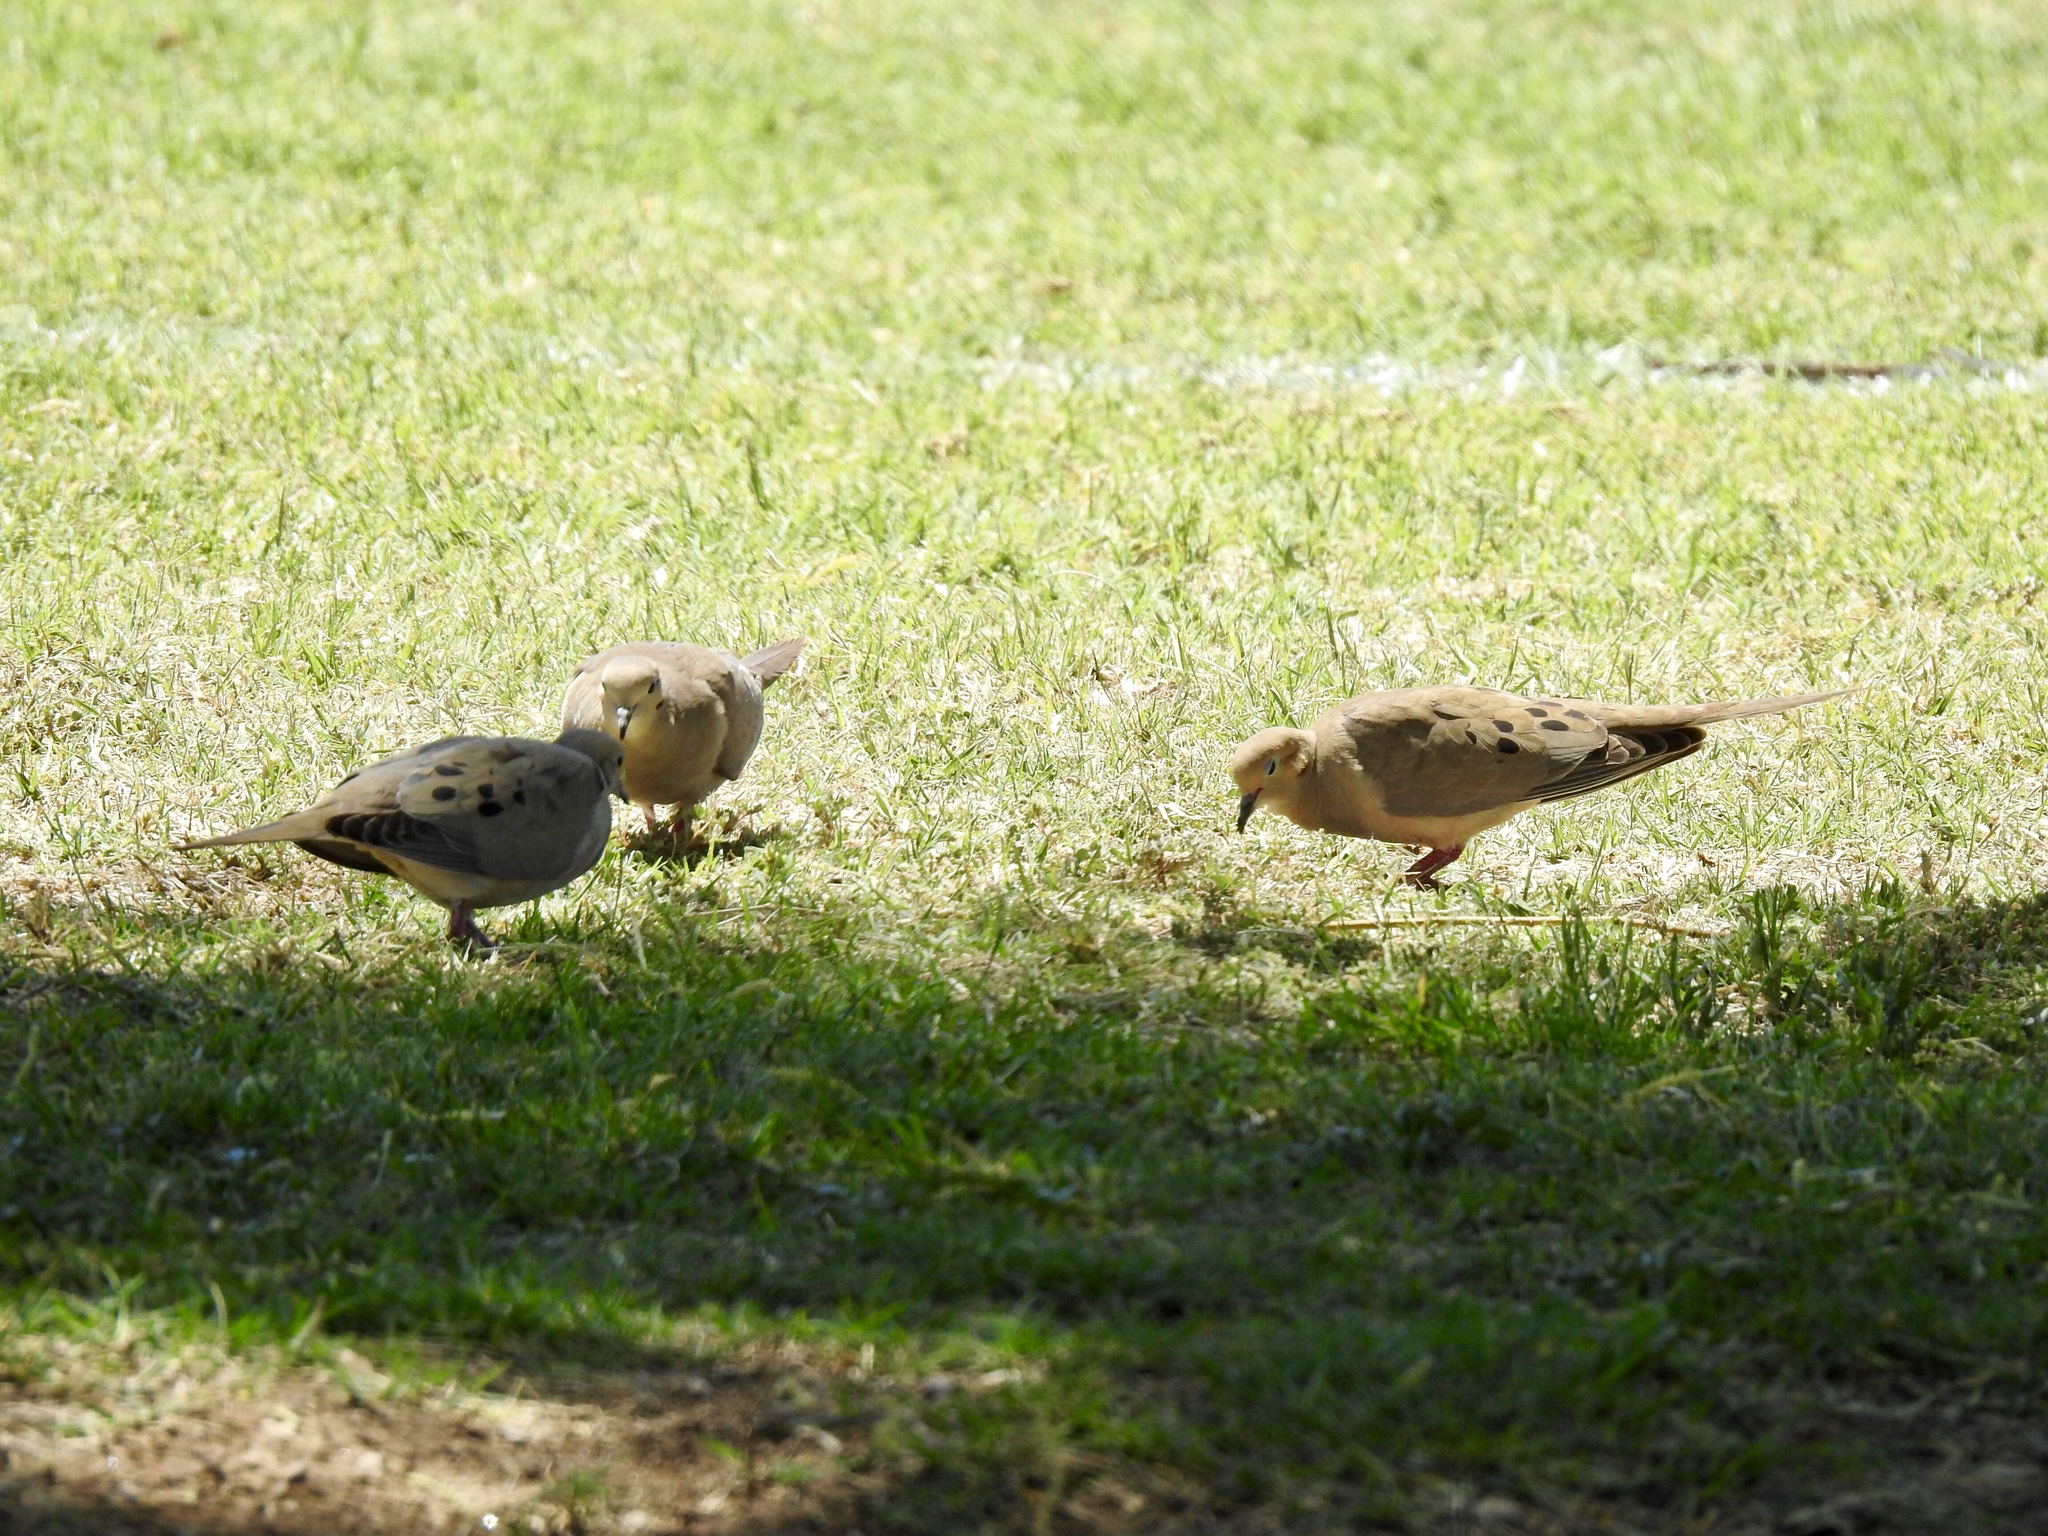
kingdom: Animalia
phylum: Chordata
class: Aves
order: Columbiformes
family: Columbidae
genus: Zenaida
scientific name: Zenaida macroura
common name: Mourning dove
